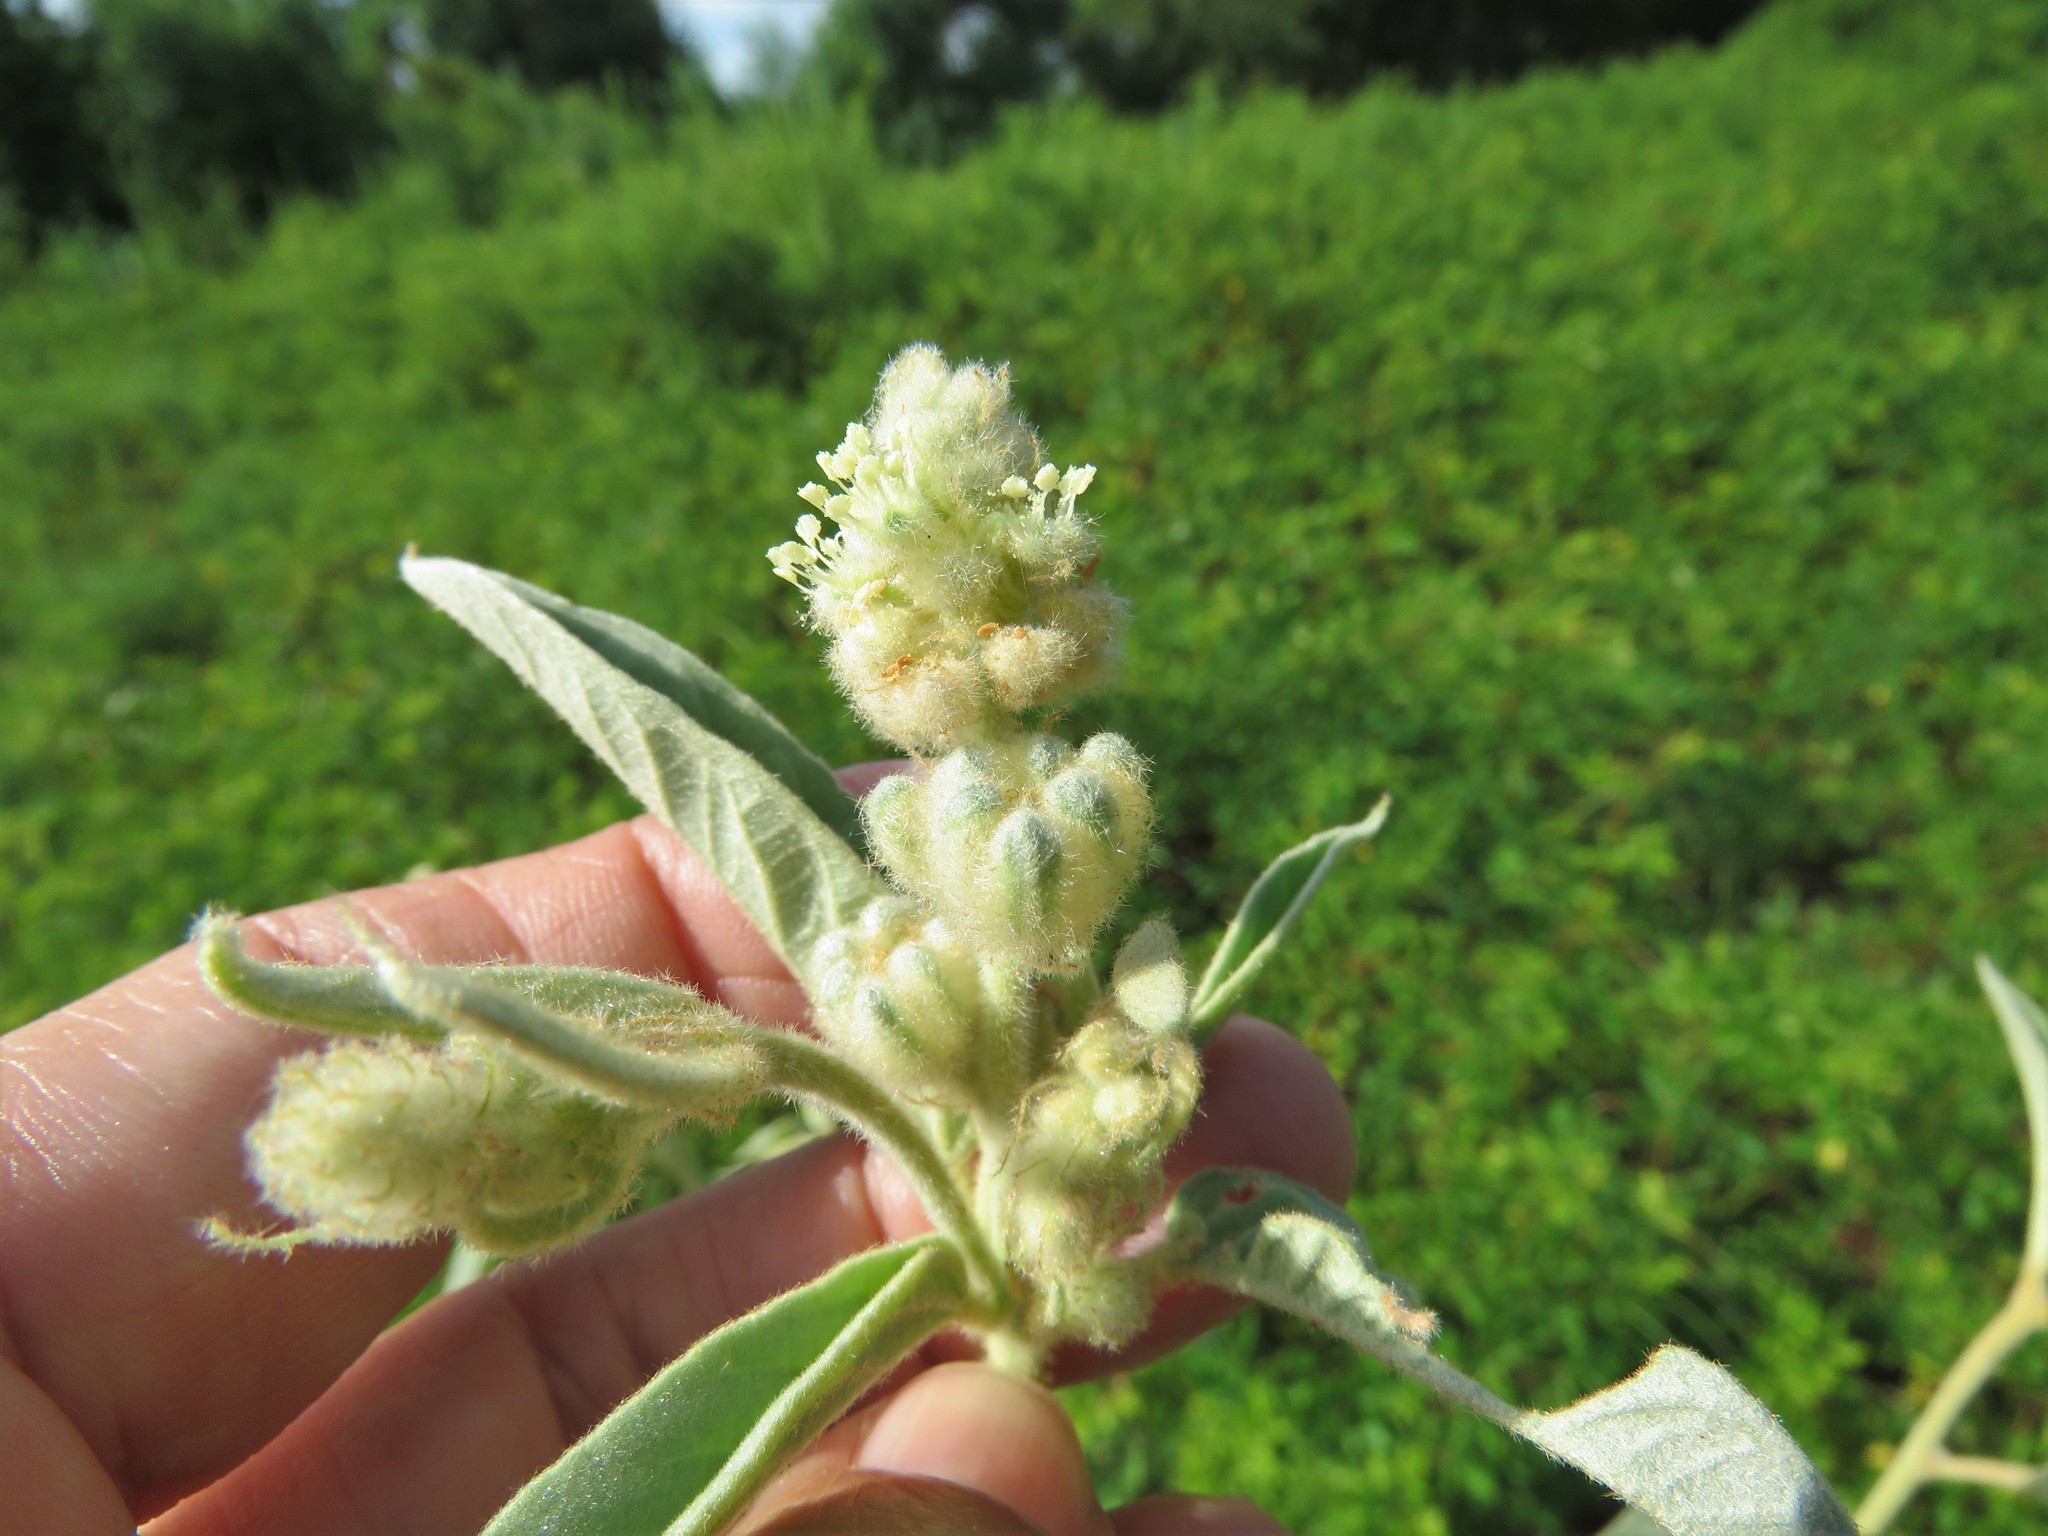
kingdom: Plantae
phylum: Tracheophyta
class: Magnoliopsida
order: Malpighiales
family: Euphorbiaceae
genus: Croton
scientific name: Croton lindheimeri
